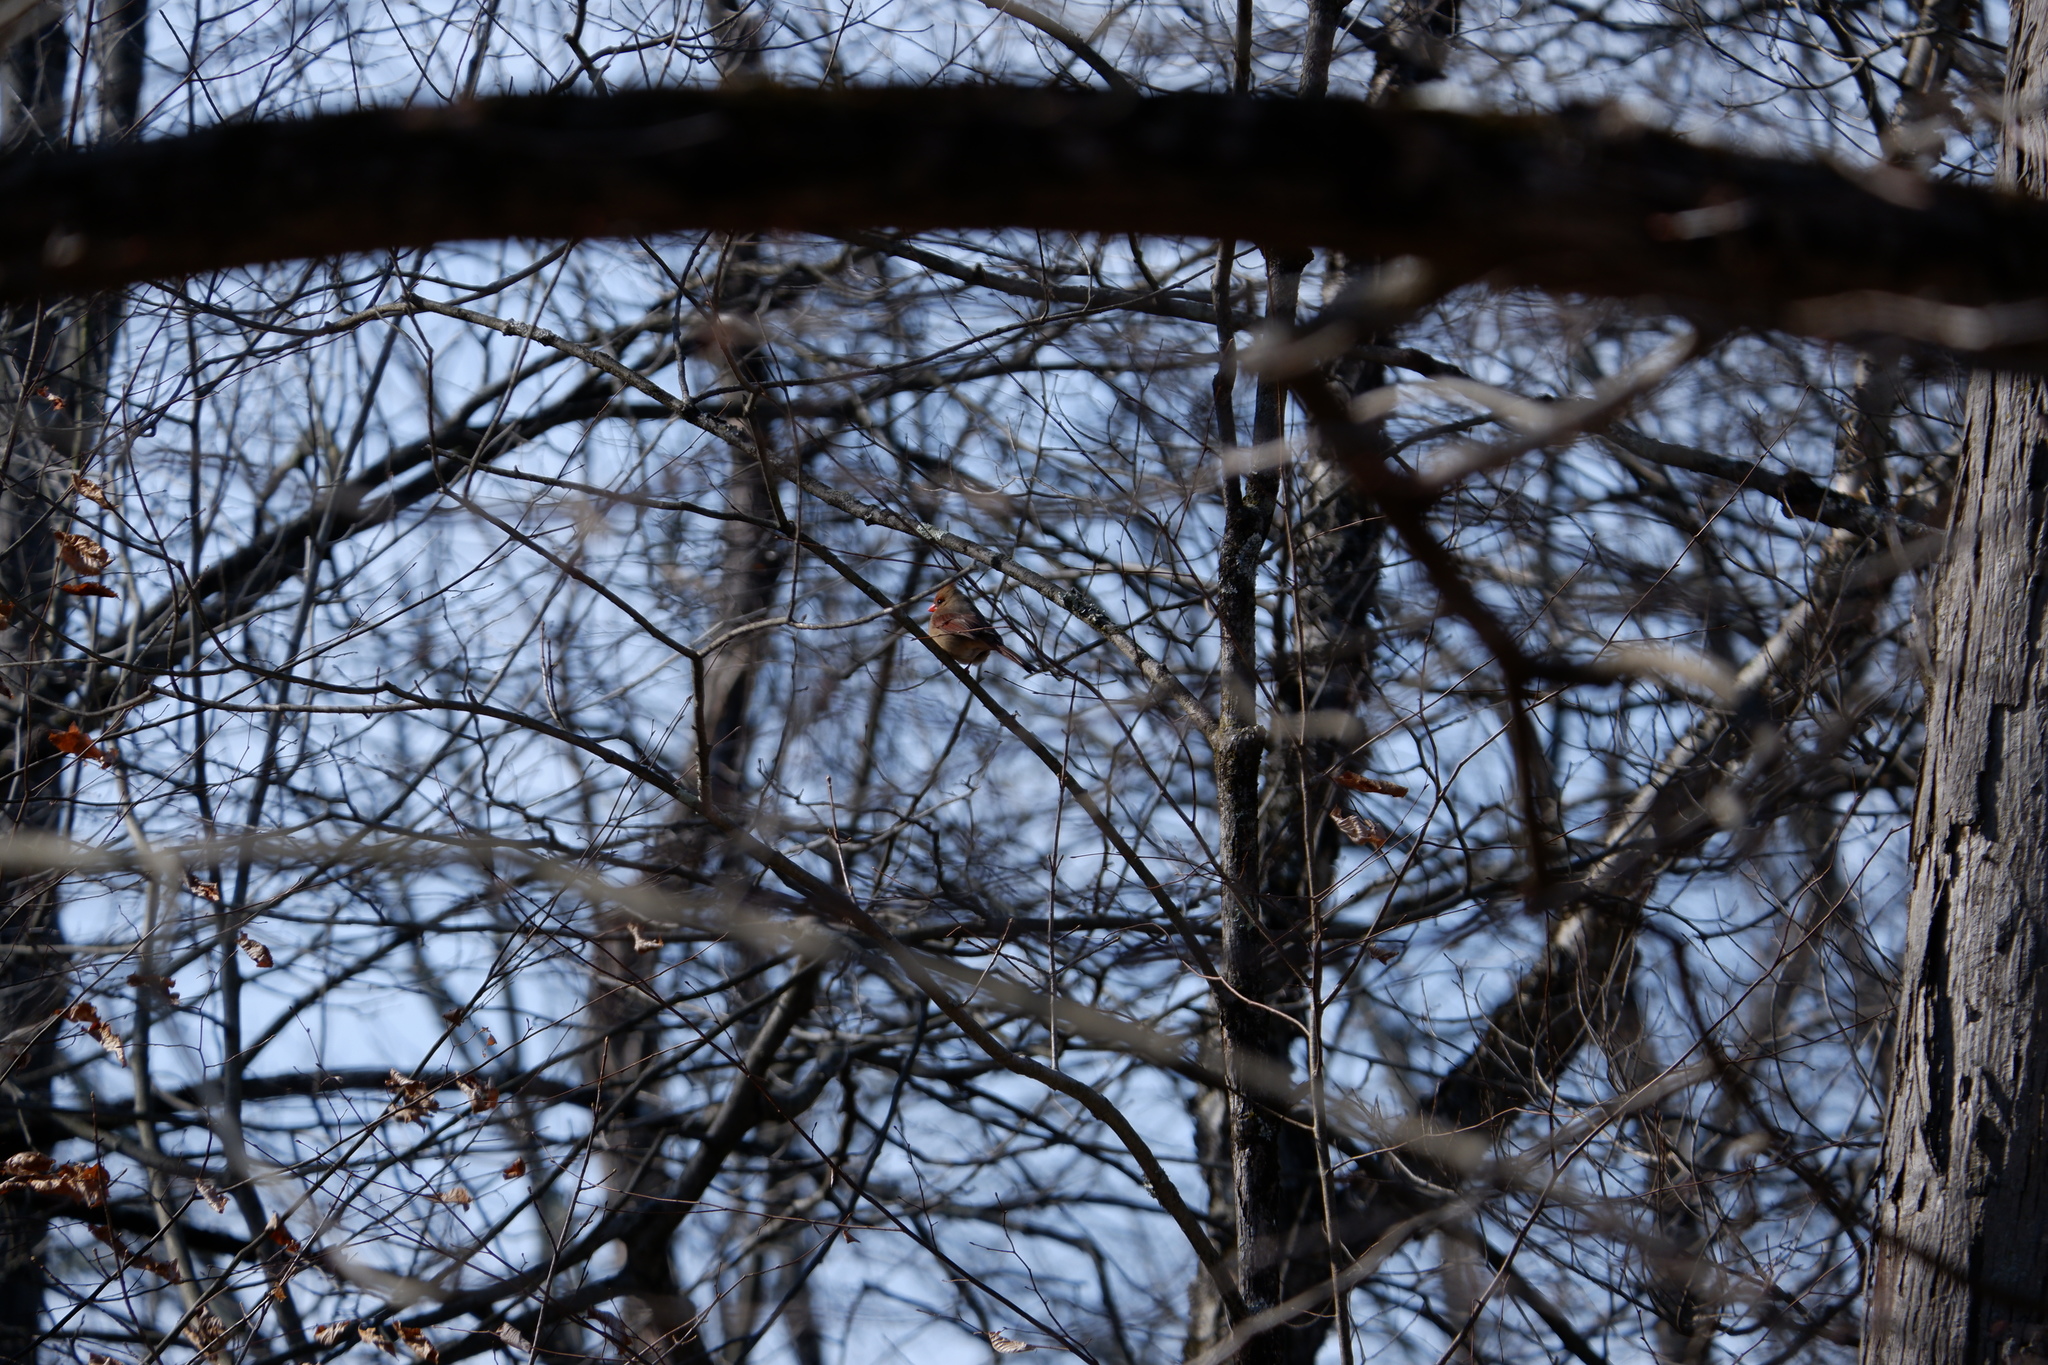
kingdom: Animalia
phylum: Chordata
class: Aves
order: Passeriformes
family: Cardinalidae
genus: Cardinalis
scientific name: Cardinalis cardinalis
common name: Northern cardinal
